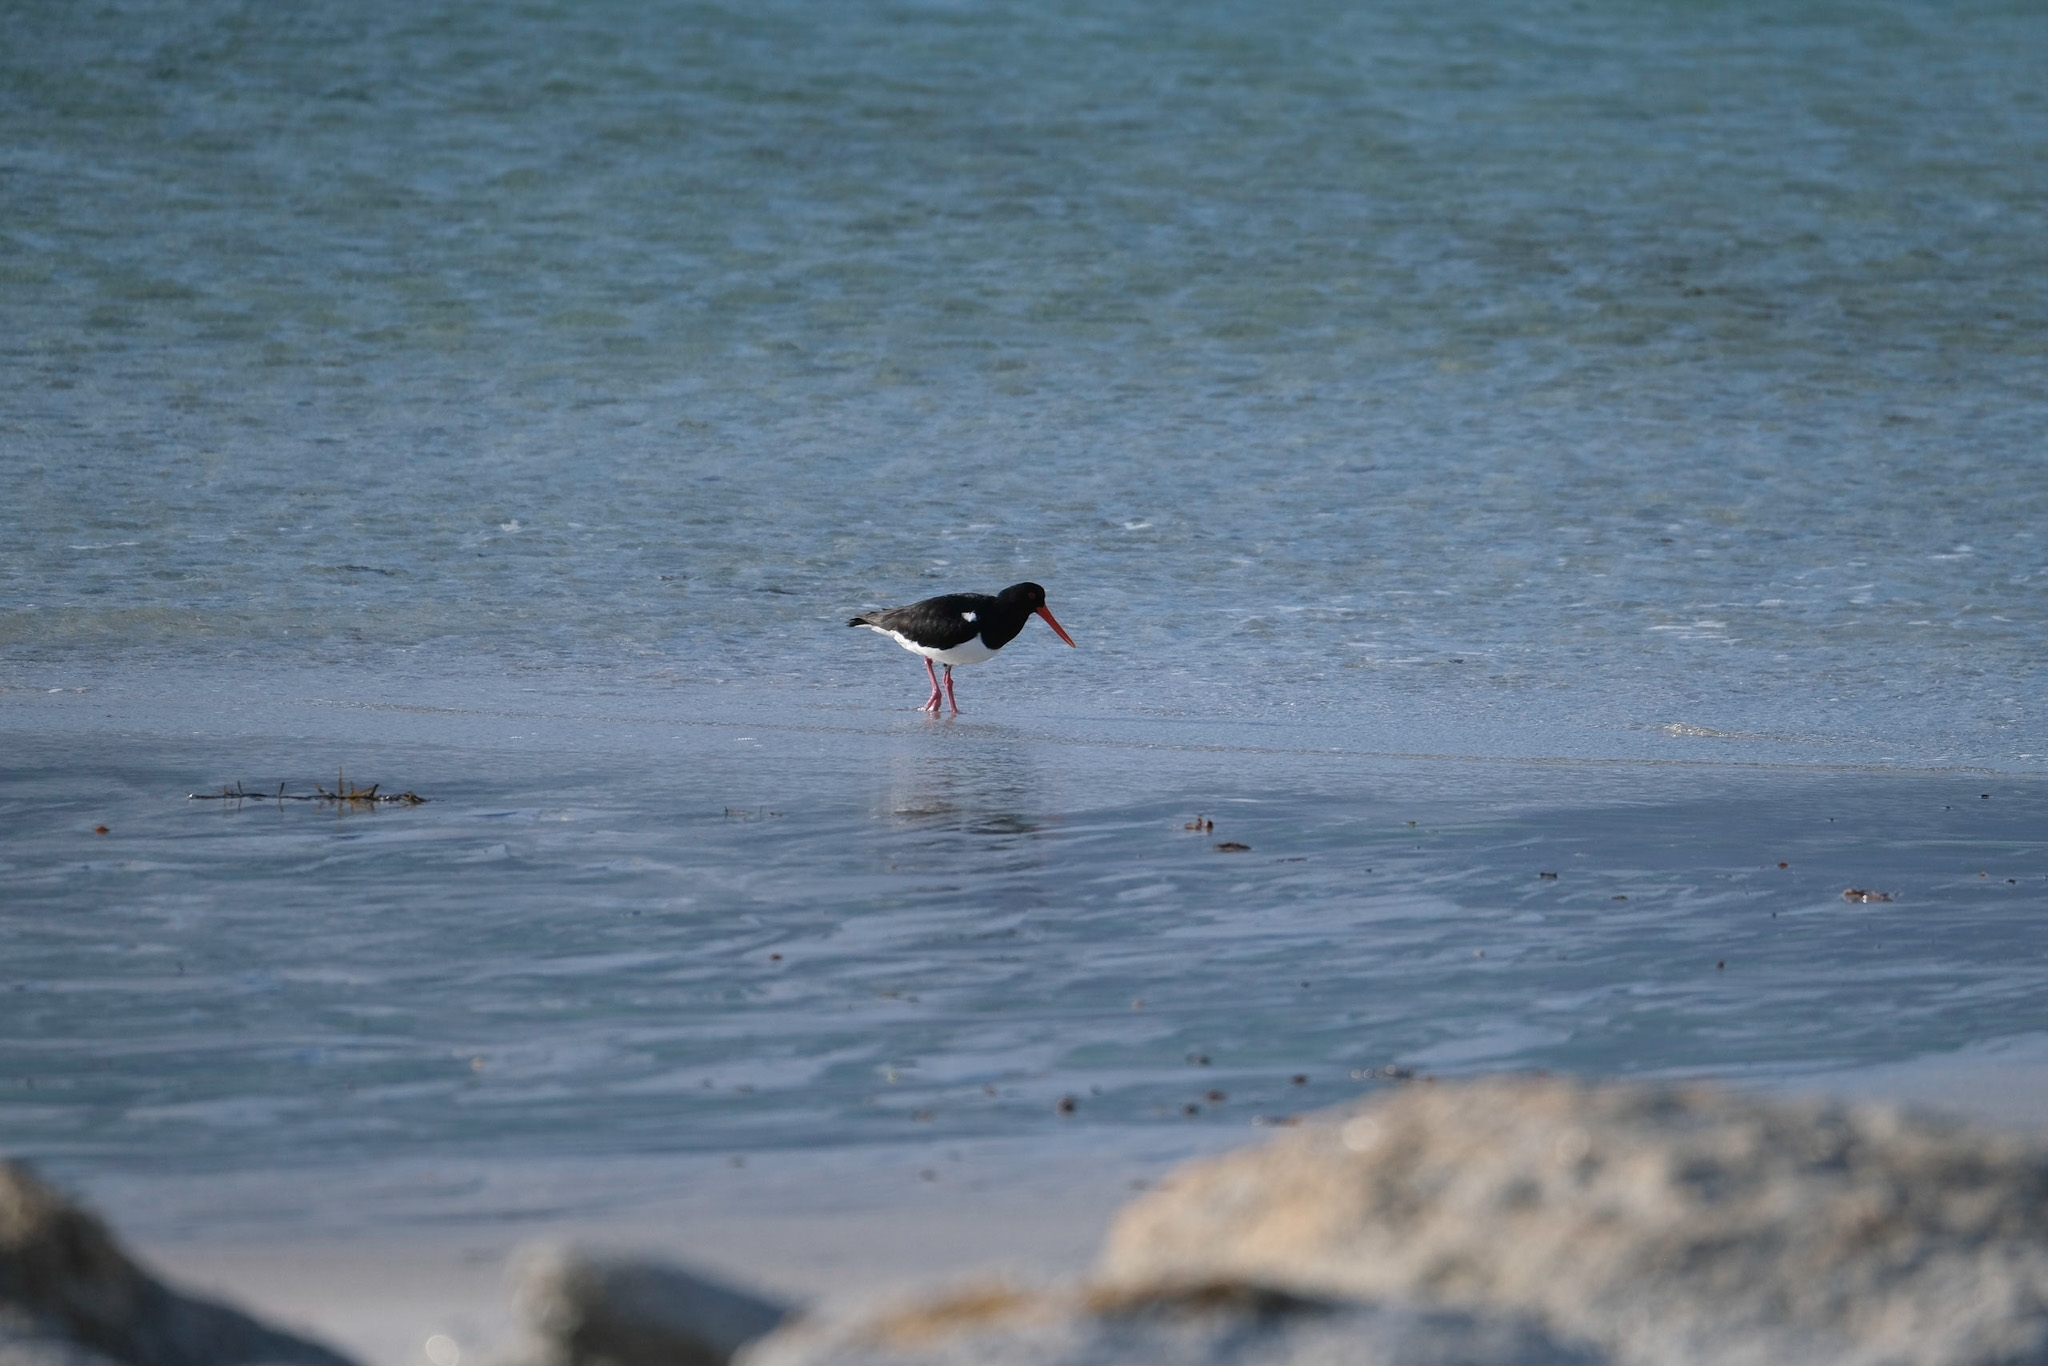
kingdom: Animalia
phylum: Chordata
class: Aves
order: Charadriiformes
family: Haematopodidae
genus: Haematopus
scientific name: Haematopus longirostris
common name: Pied oystercatcher
